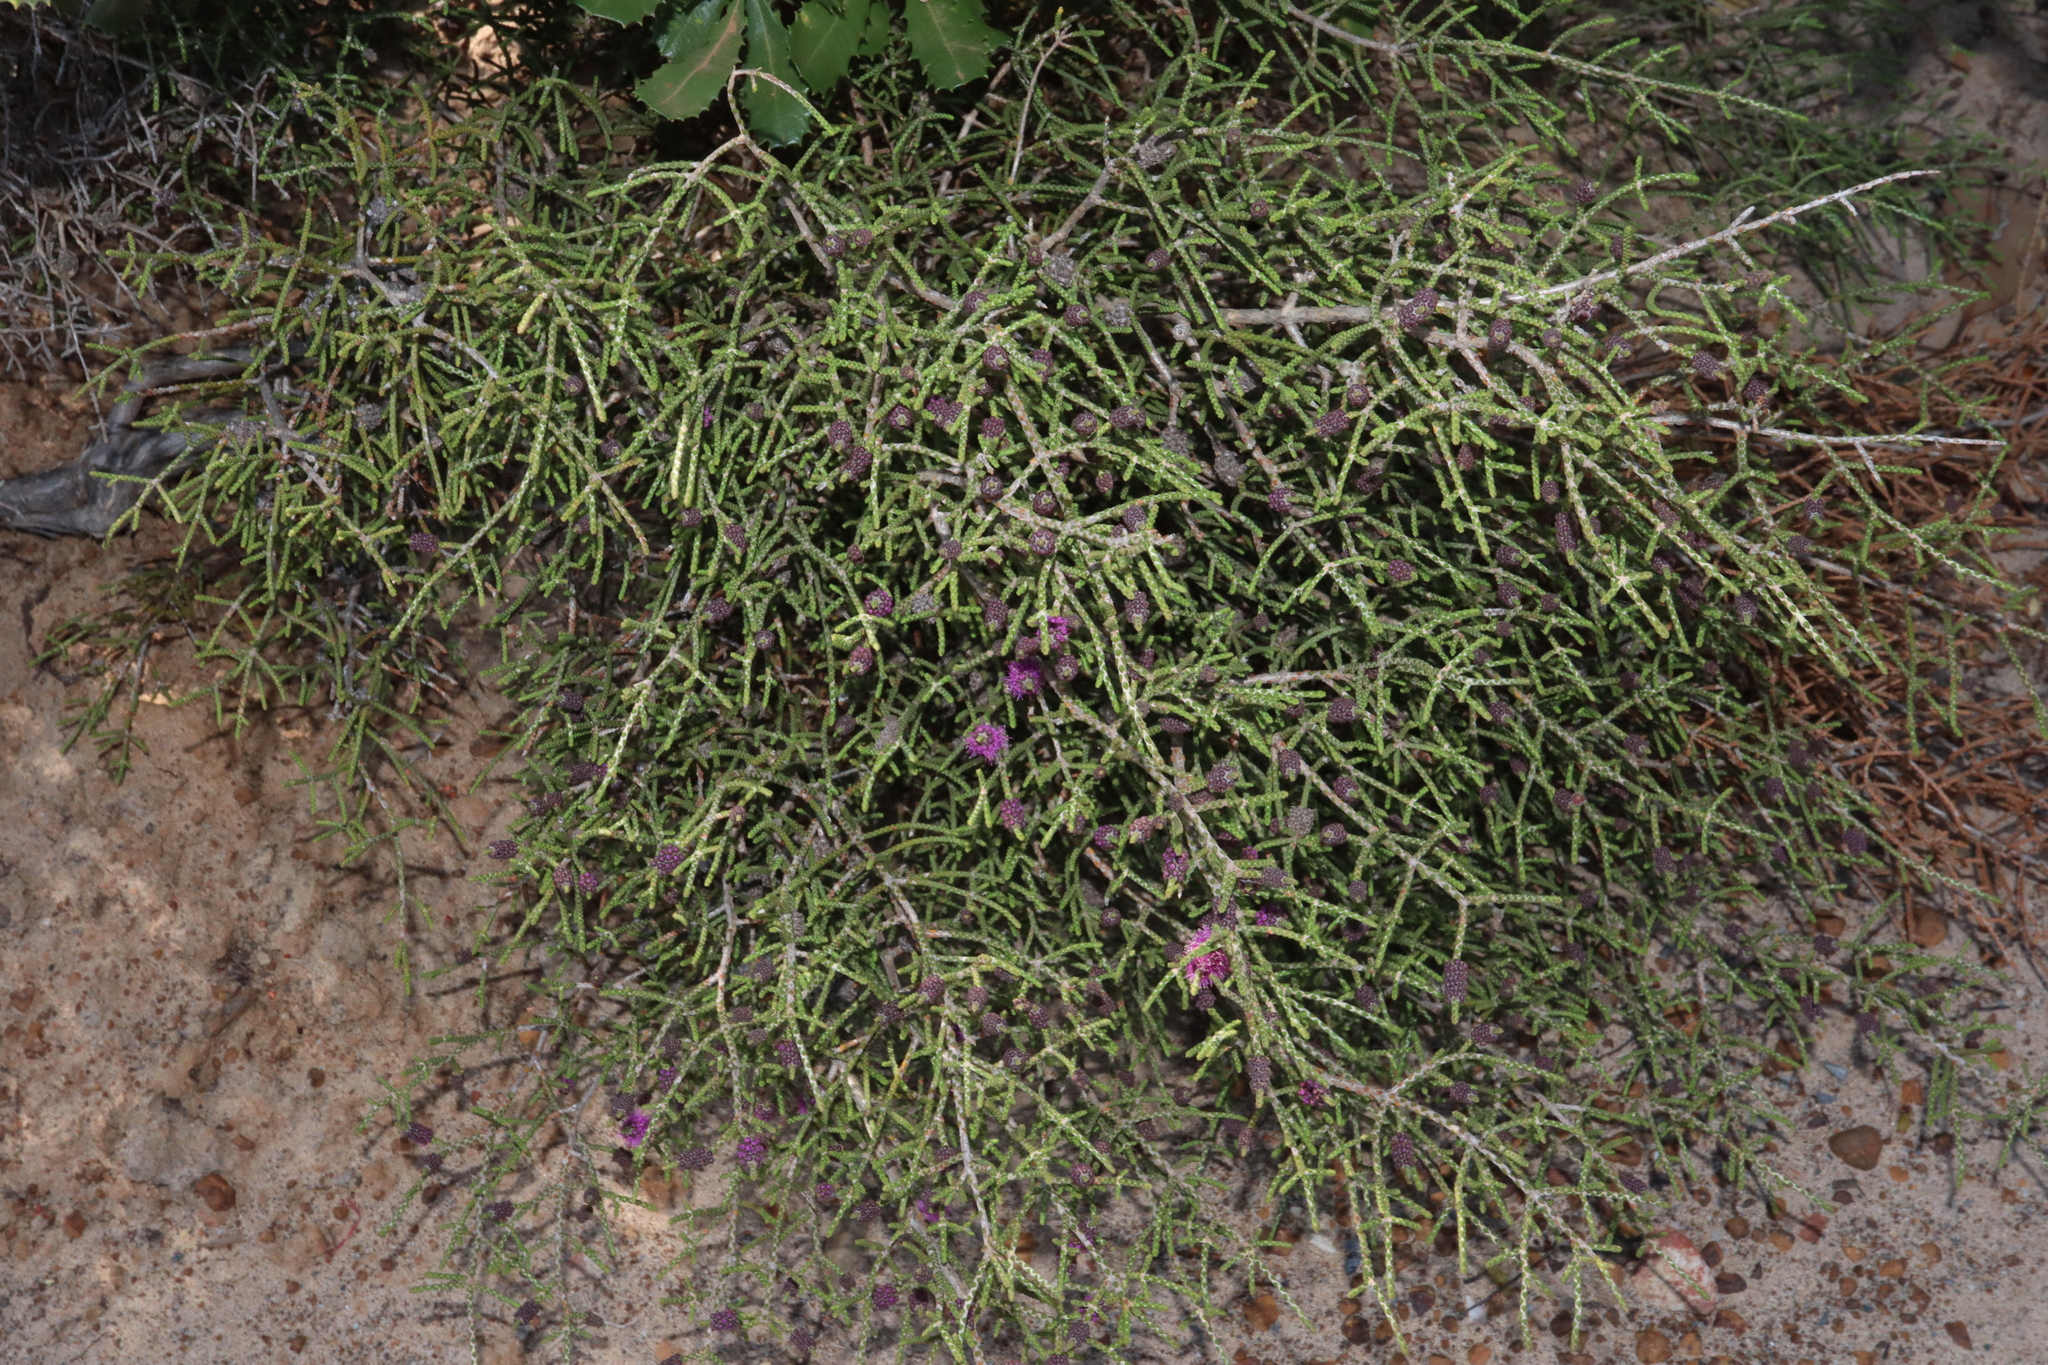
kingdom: Plantae
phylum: Tracheophyta
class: Magnoliopsida
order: Myrtales
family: Myrtaceae
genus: Melaleuca
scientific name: Melaleuca micrantha
